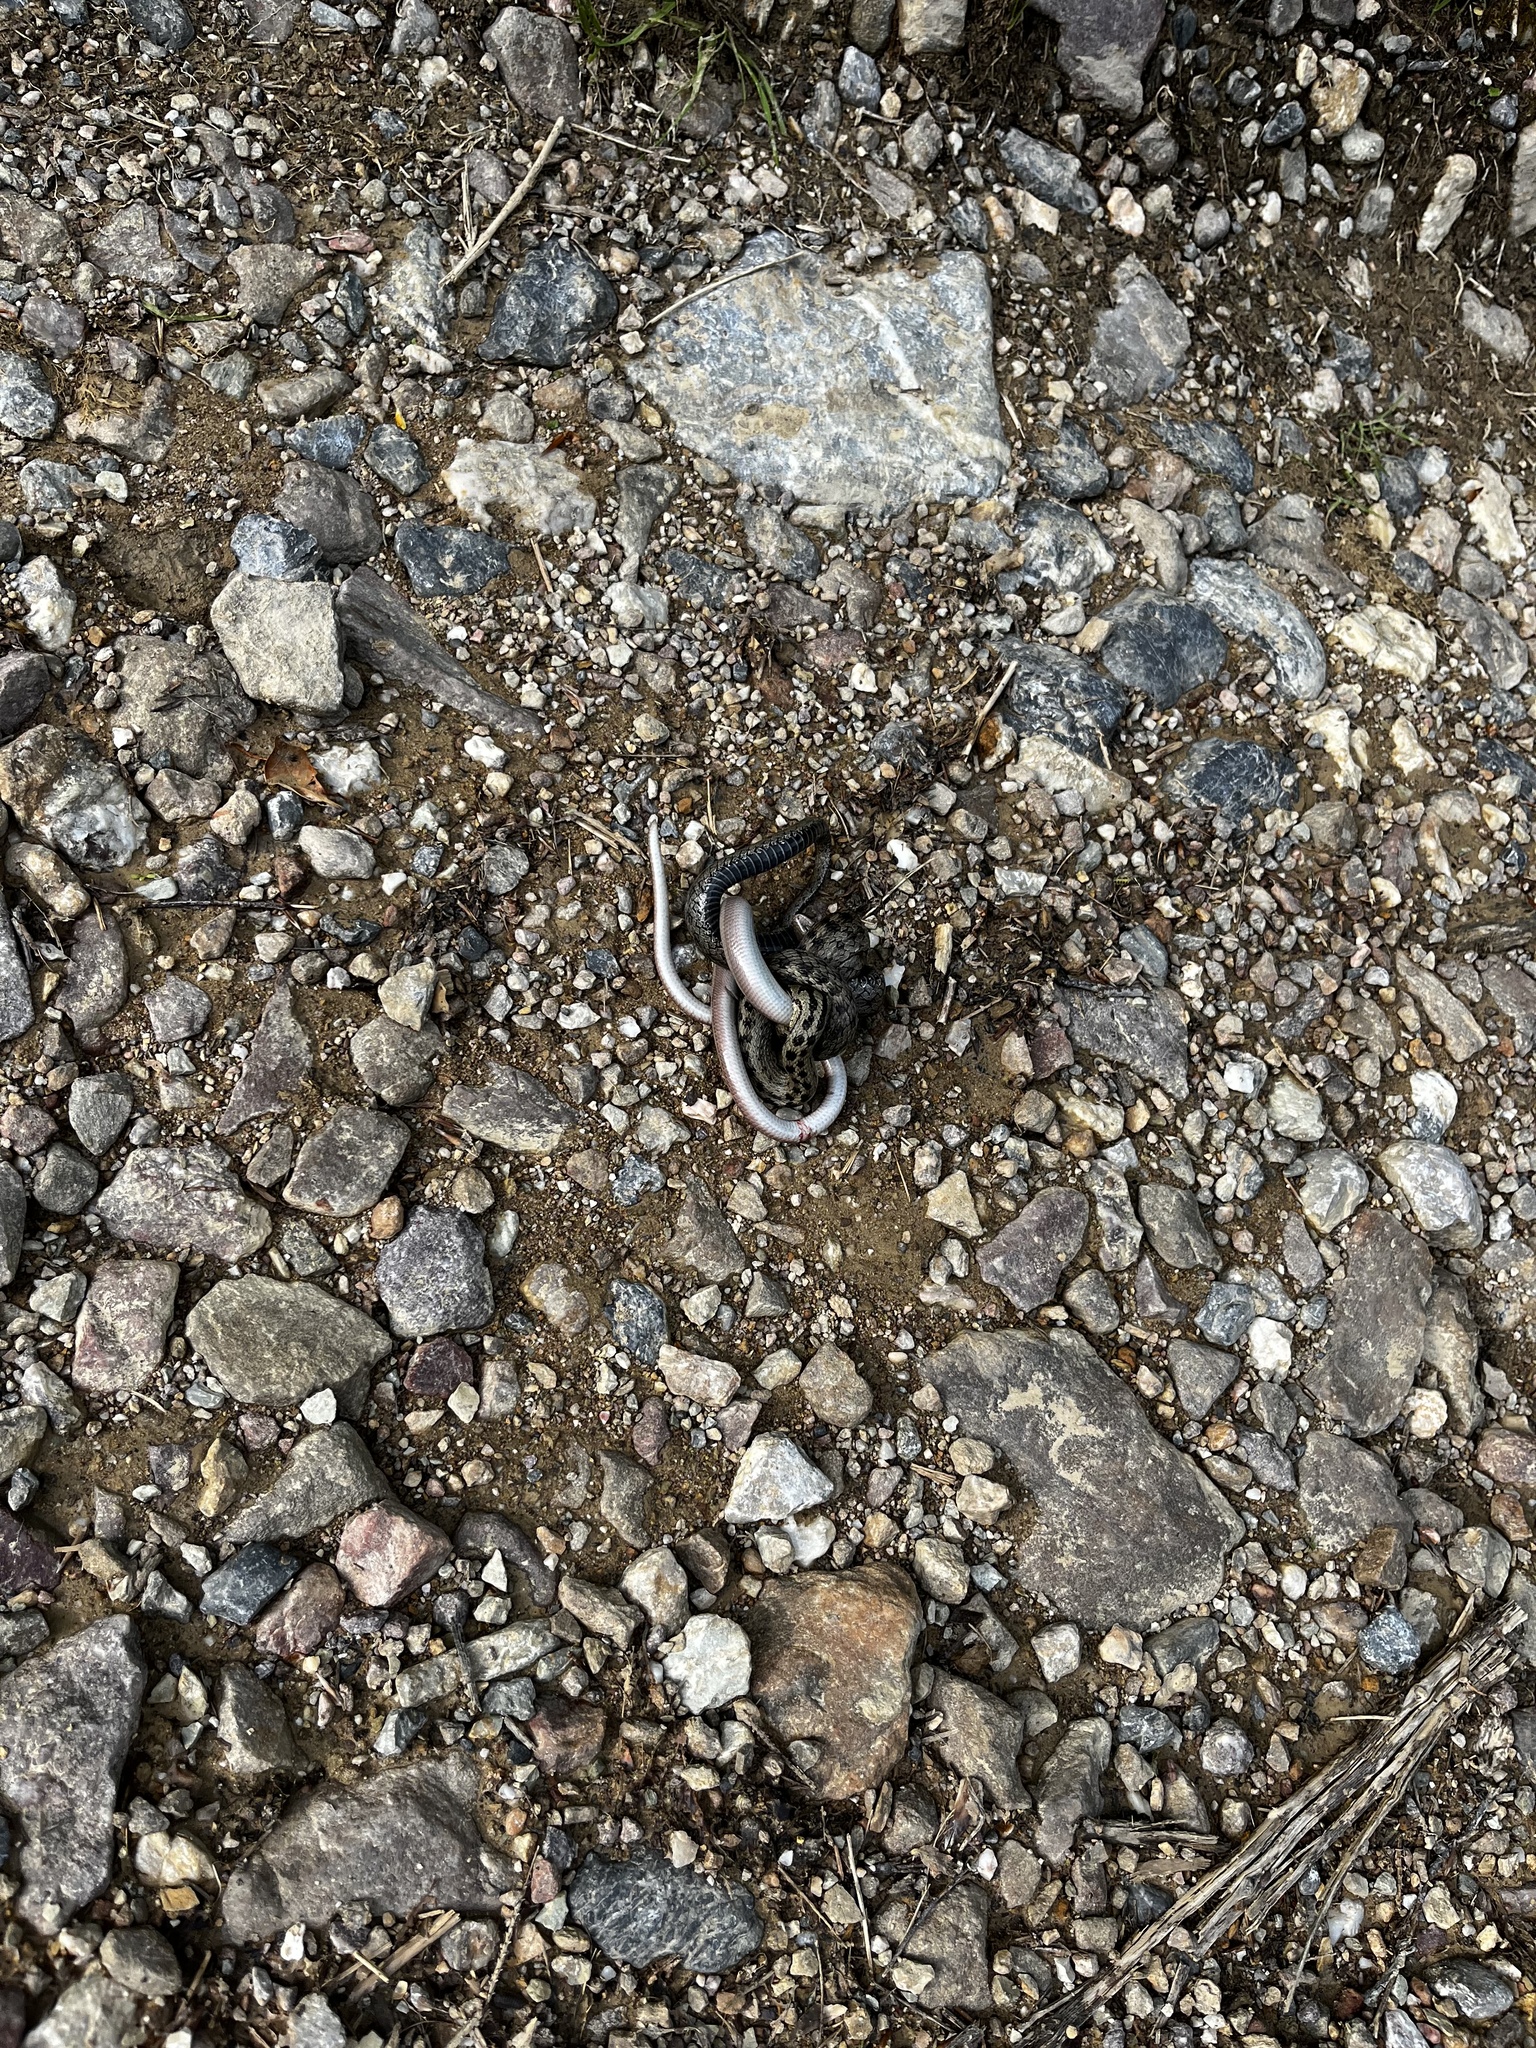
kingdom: Animalia
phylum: Chordata
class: Squamata
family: Colubridae
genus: Coronella
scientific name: Coronella austriaca
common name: Smooth snake
